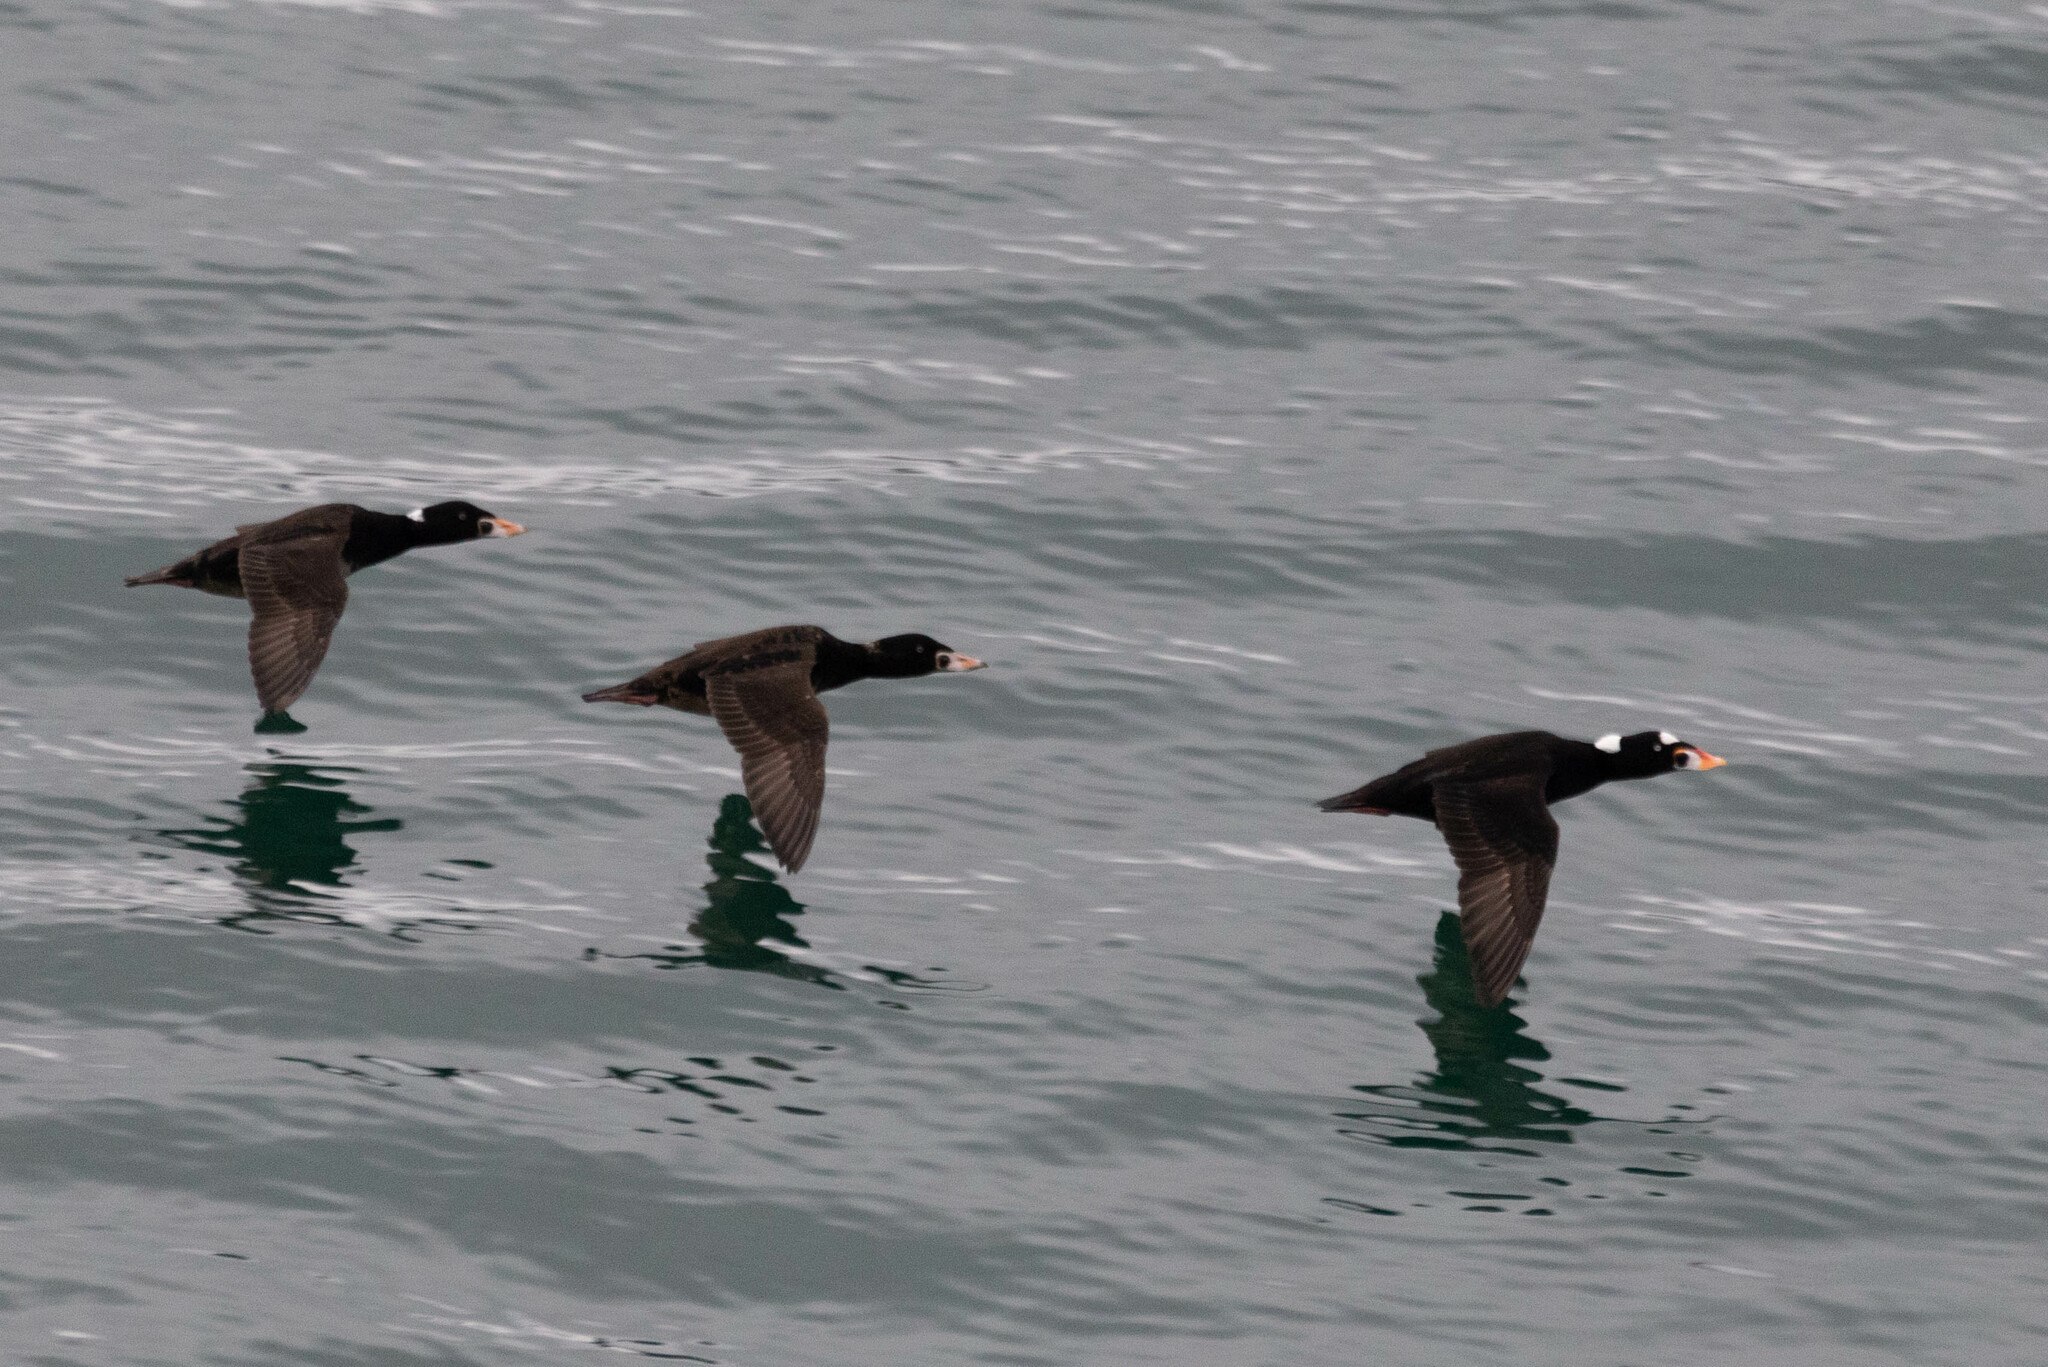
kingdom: Animalia
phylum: Chordata
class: Aves
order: Anseriformes
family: Anatidae
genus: Melanitta
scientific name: Melanitta perspicillata
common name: Surf scoter
